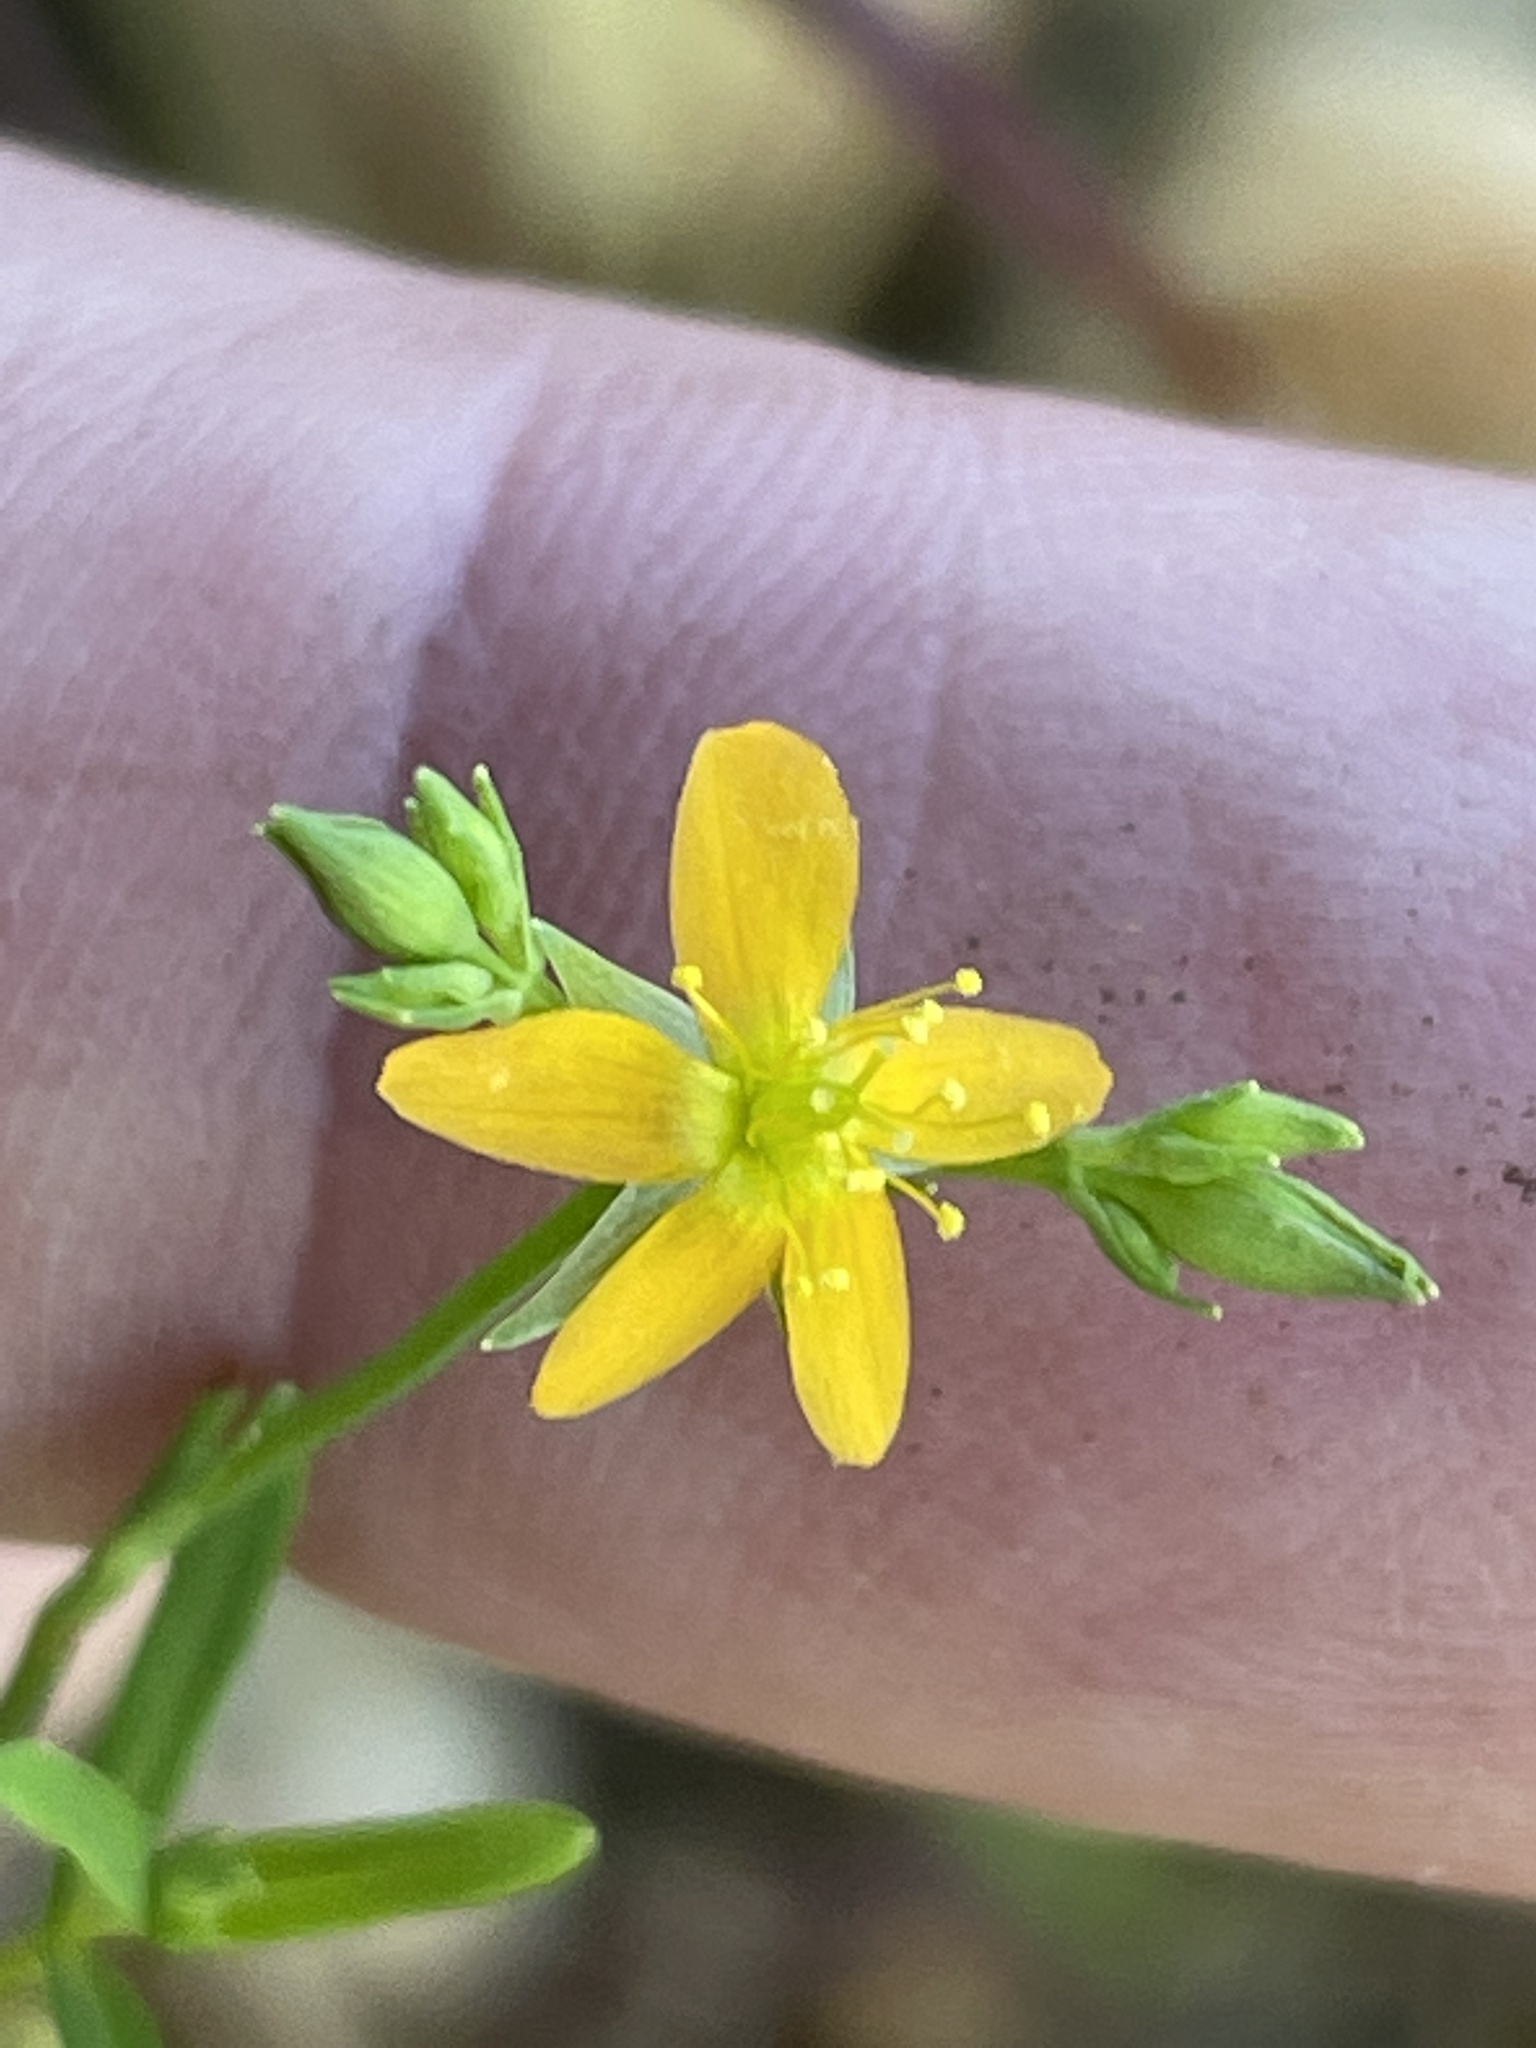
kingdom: Plantae
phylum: Tracheophyta
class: Magnoliopsida
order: Malpighiales
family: Hypericaceae
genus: Hypericum
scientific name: Hypericum canadense
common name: Irish st. john's-wort
